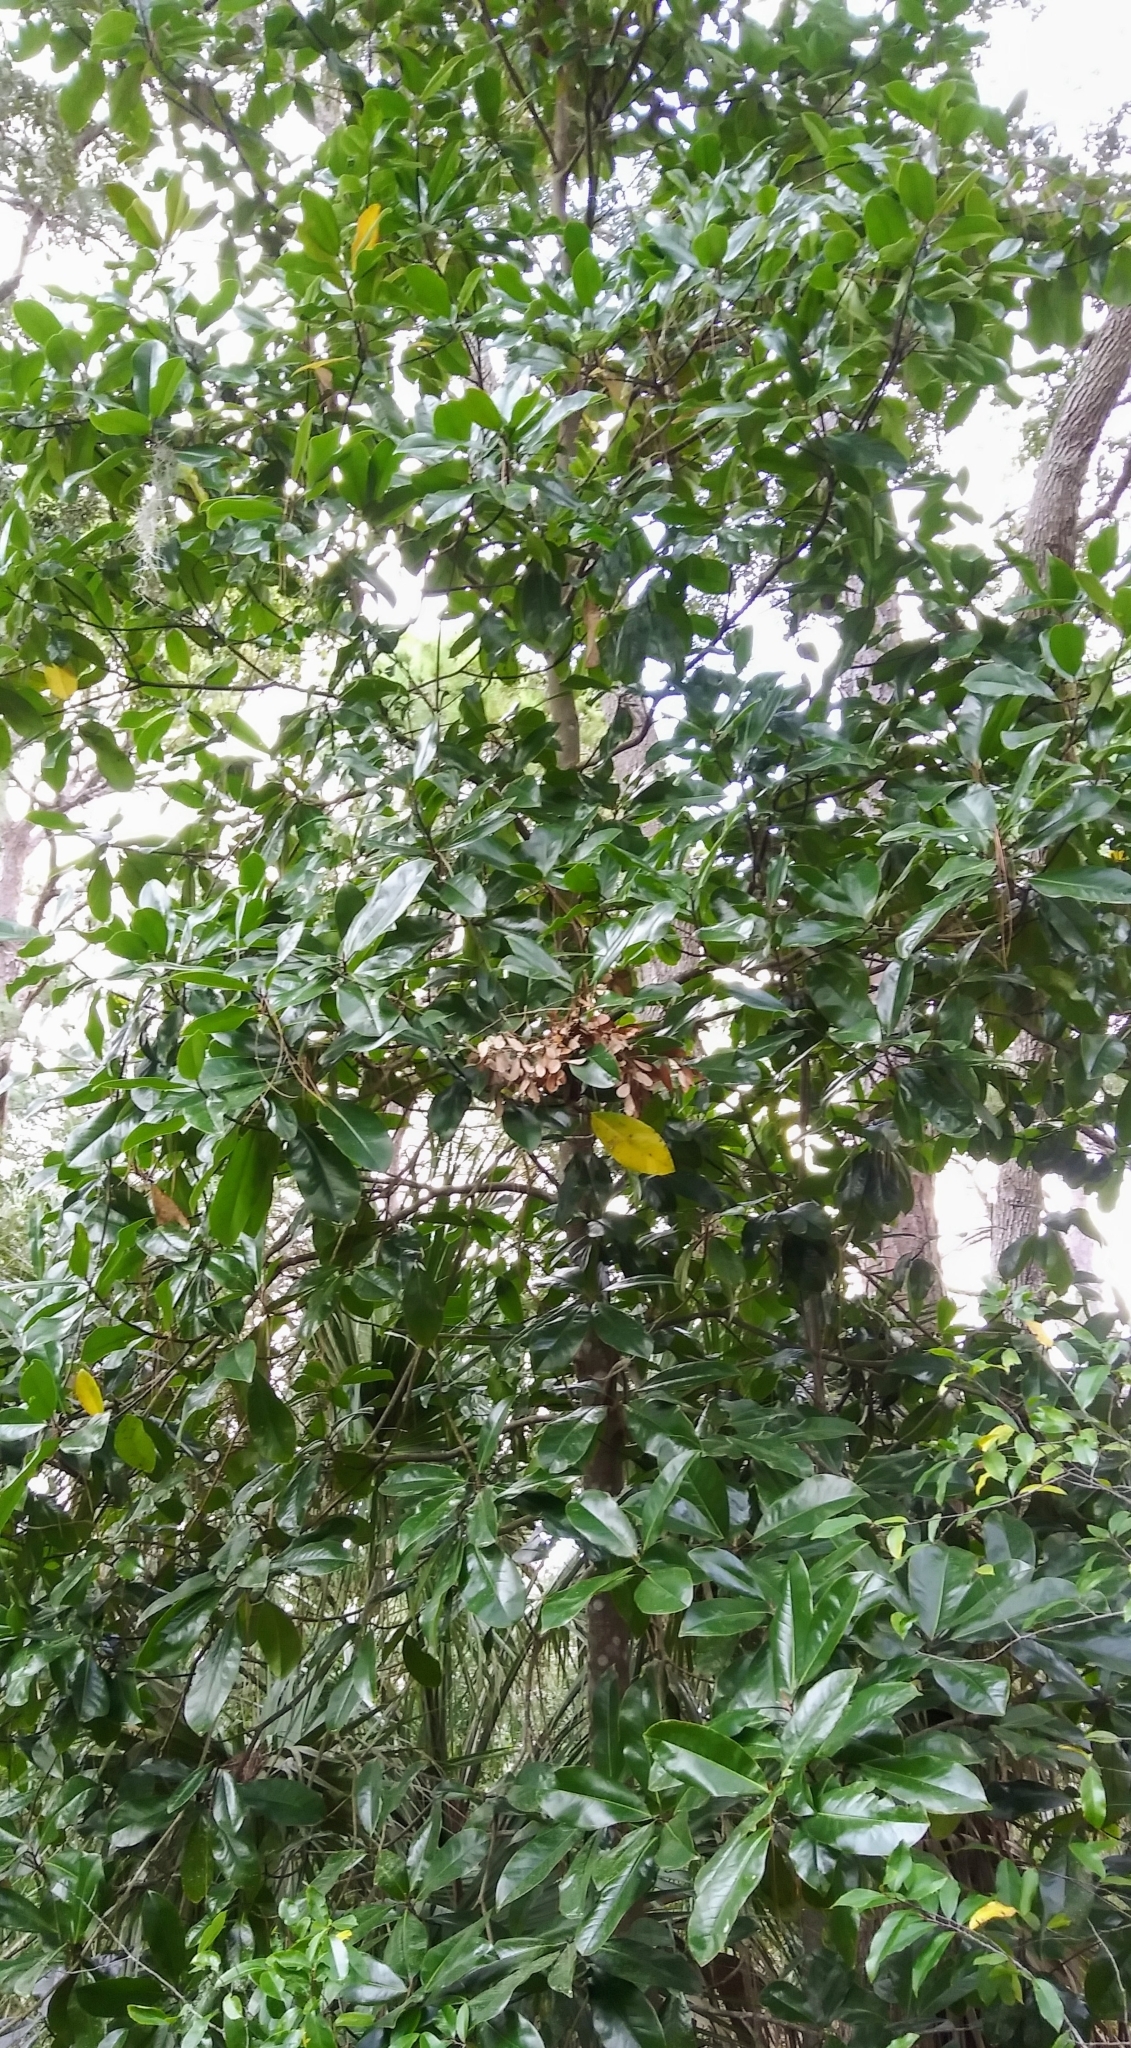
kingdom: Plantae
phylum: Tracheophyta
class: Magnoliopsida
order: Magnoliales
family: Magnoliaceae
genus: Magnolia
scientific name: Magnolia grandiflora
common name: Southern magnolia
